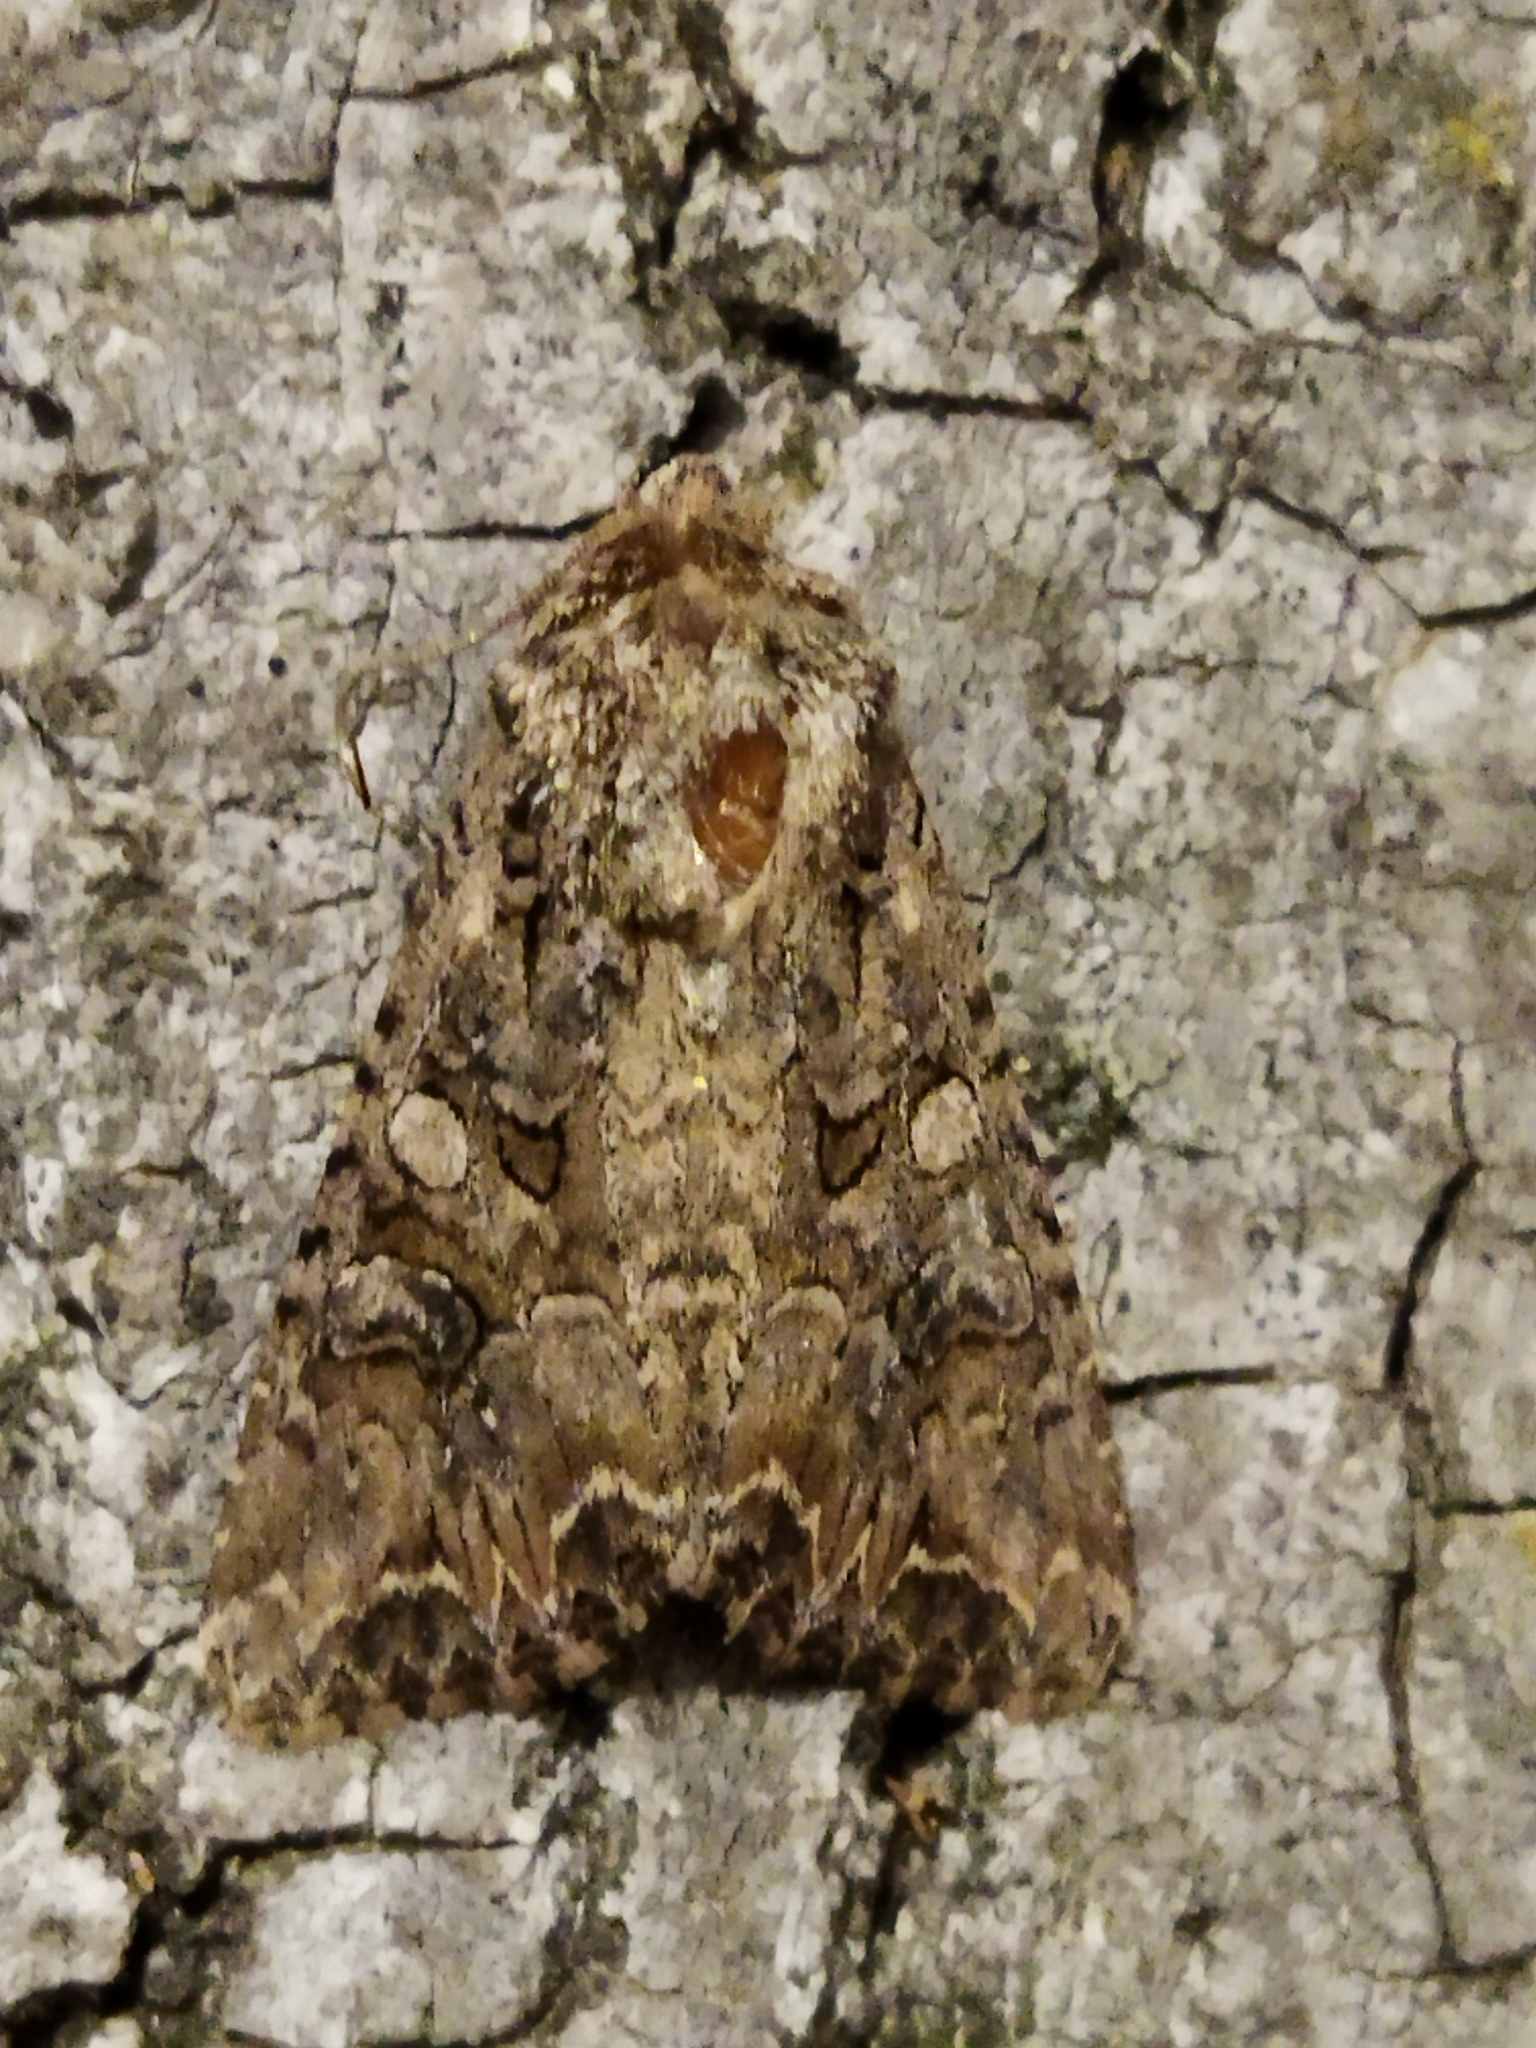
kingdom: Animalia
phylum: Arthropoda
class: Insecta
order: Lepidoptera
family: Noctuidae
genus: Anarta
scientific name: Anarta trifolii
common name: Clover cutworm moth
